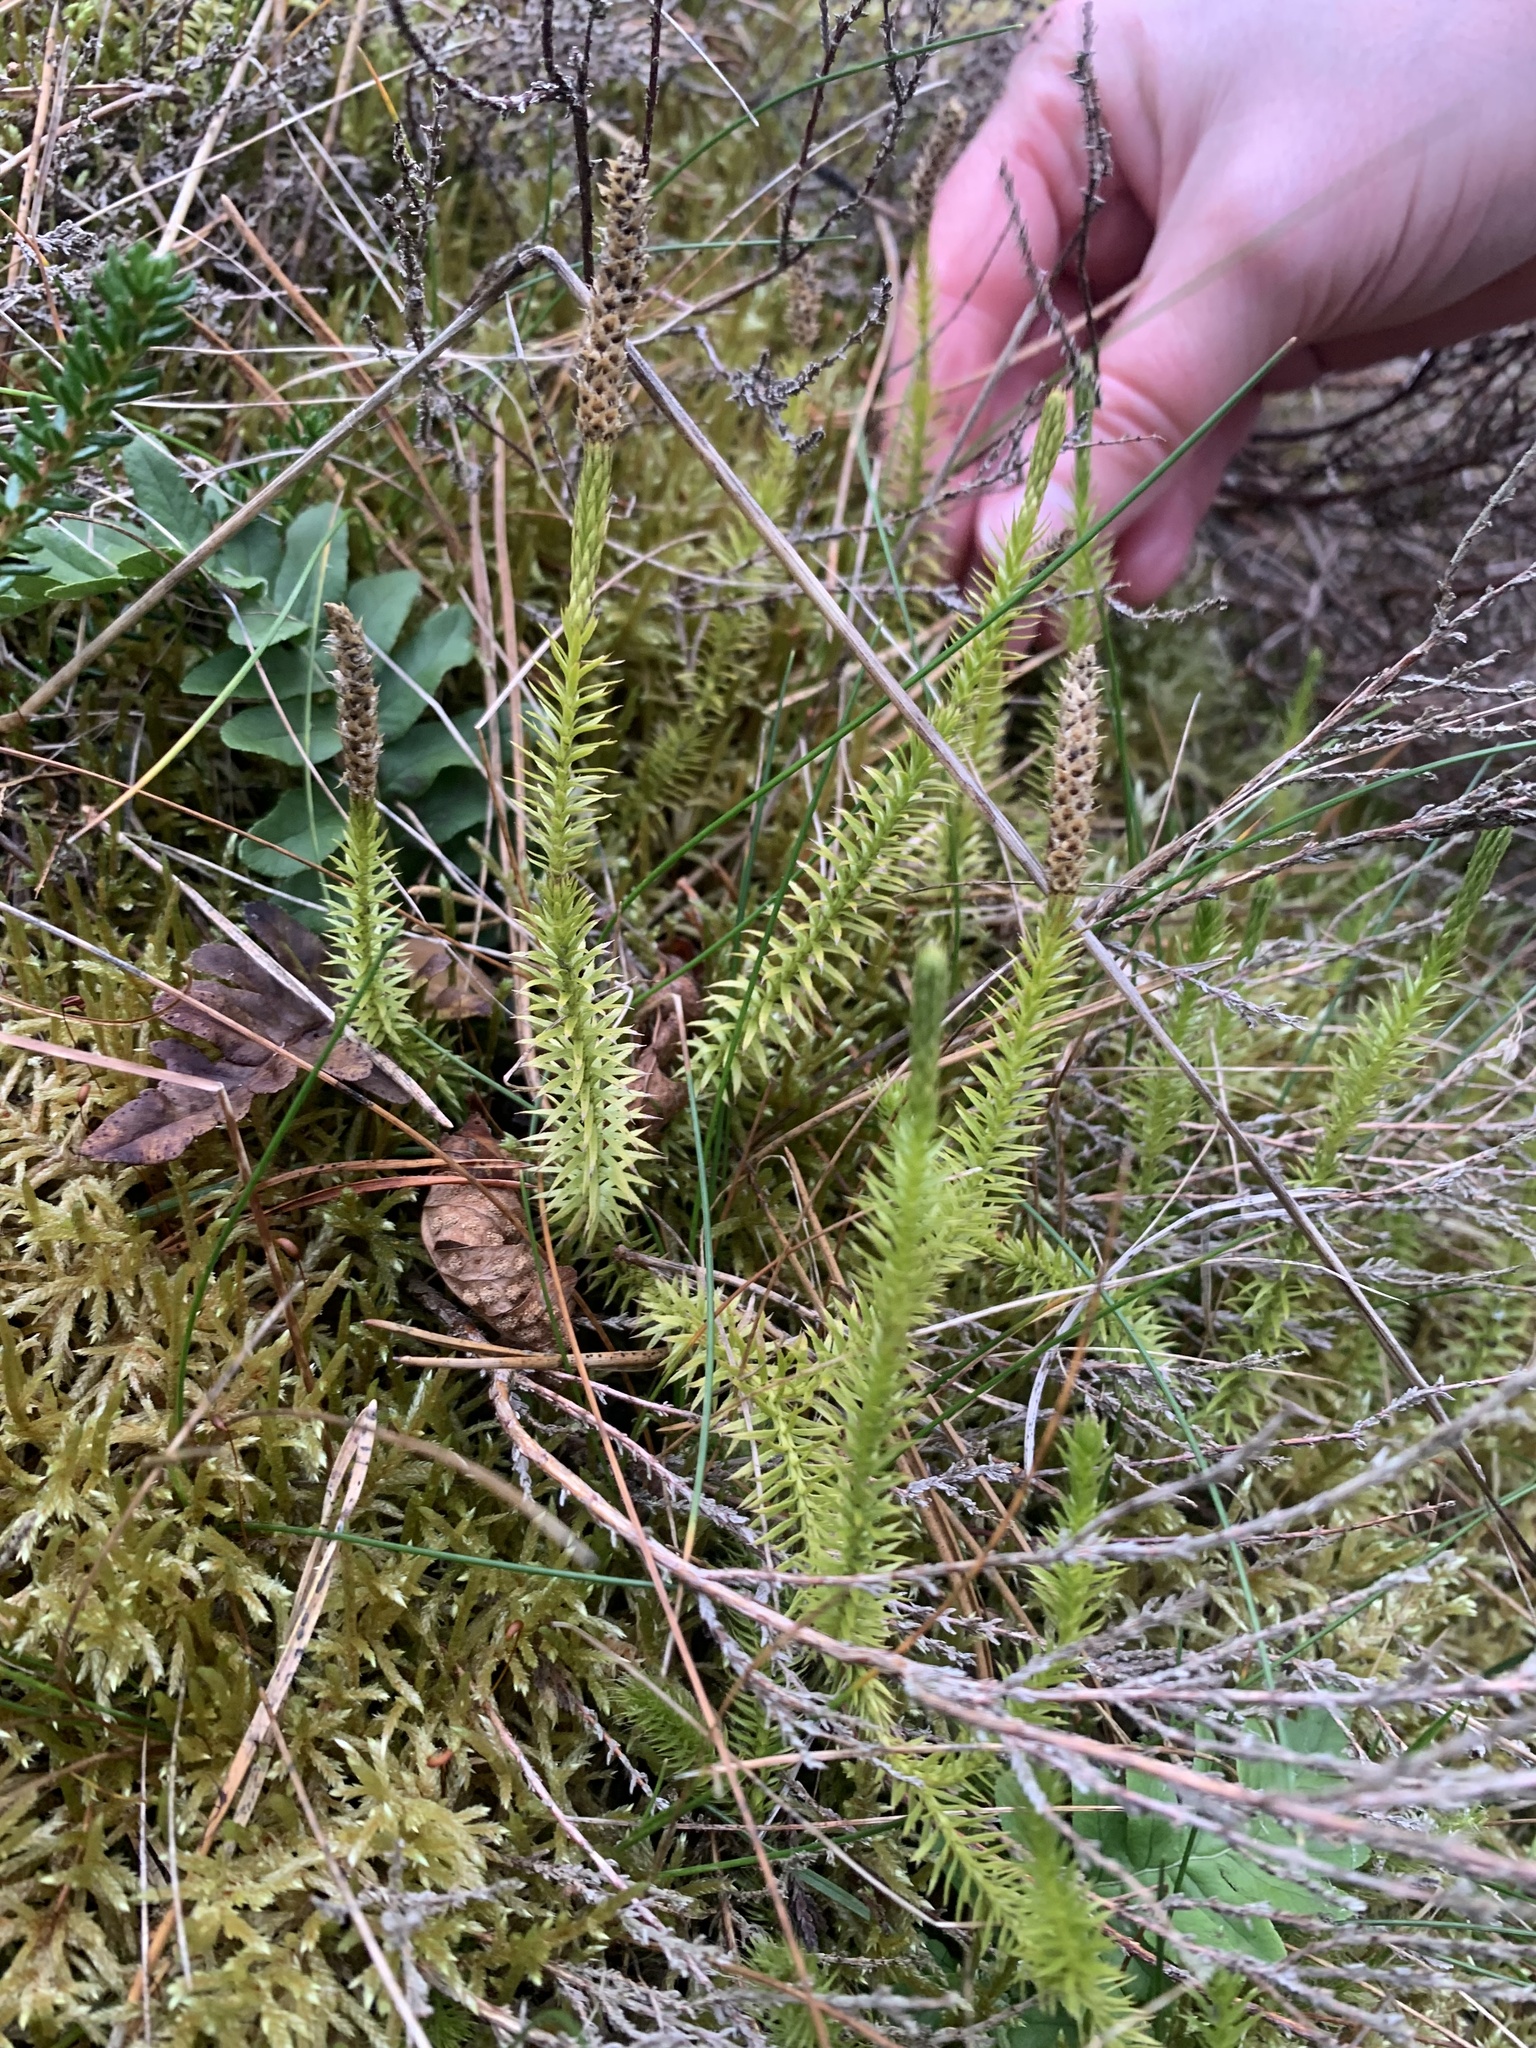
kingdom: Plantae
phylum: Tracheophyta
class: Lycopodiopsida
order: Lycopodiales
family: Lycopodiaceae
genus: Spinulum
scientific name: Spinulum annotinum
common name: Interrupted club-moss
